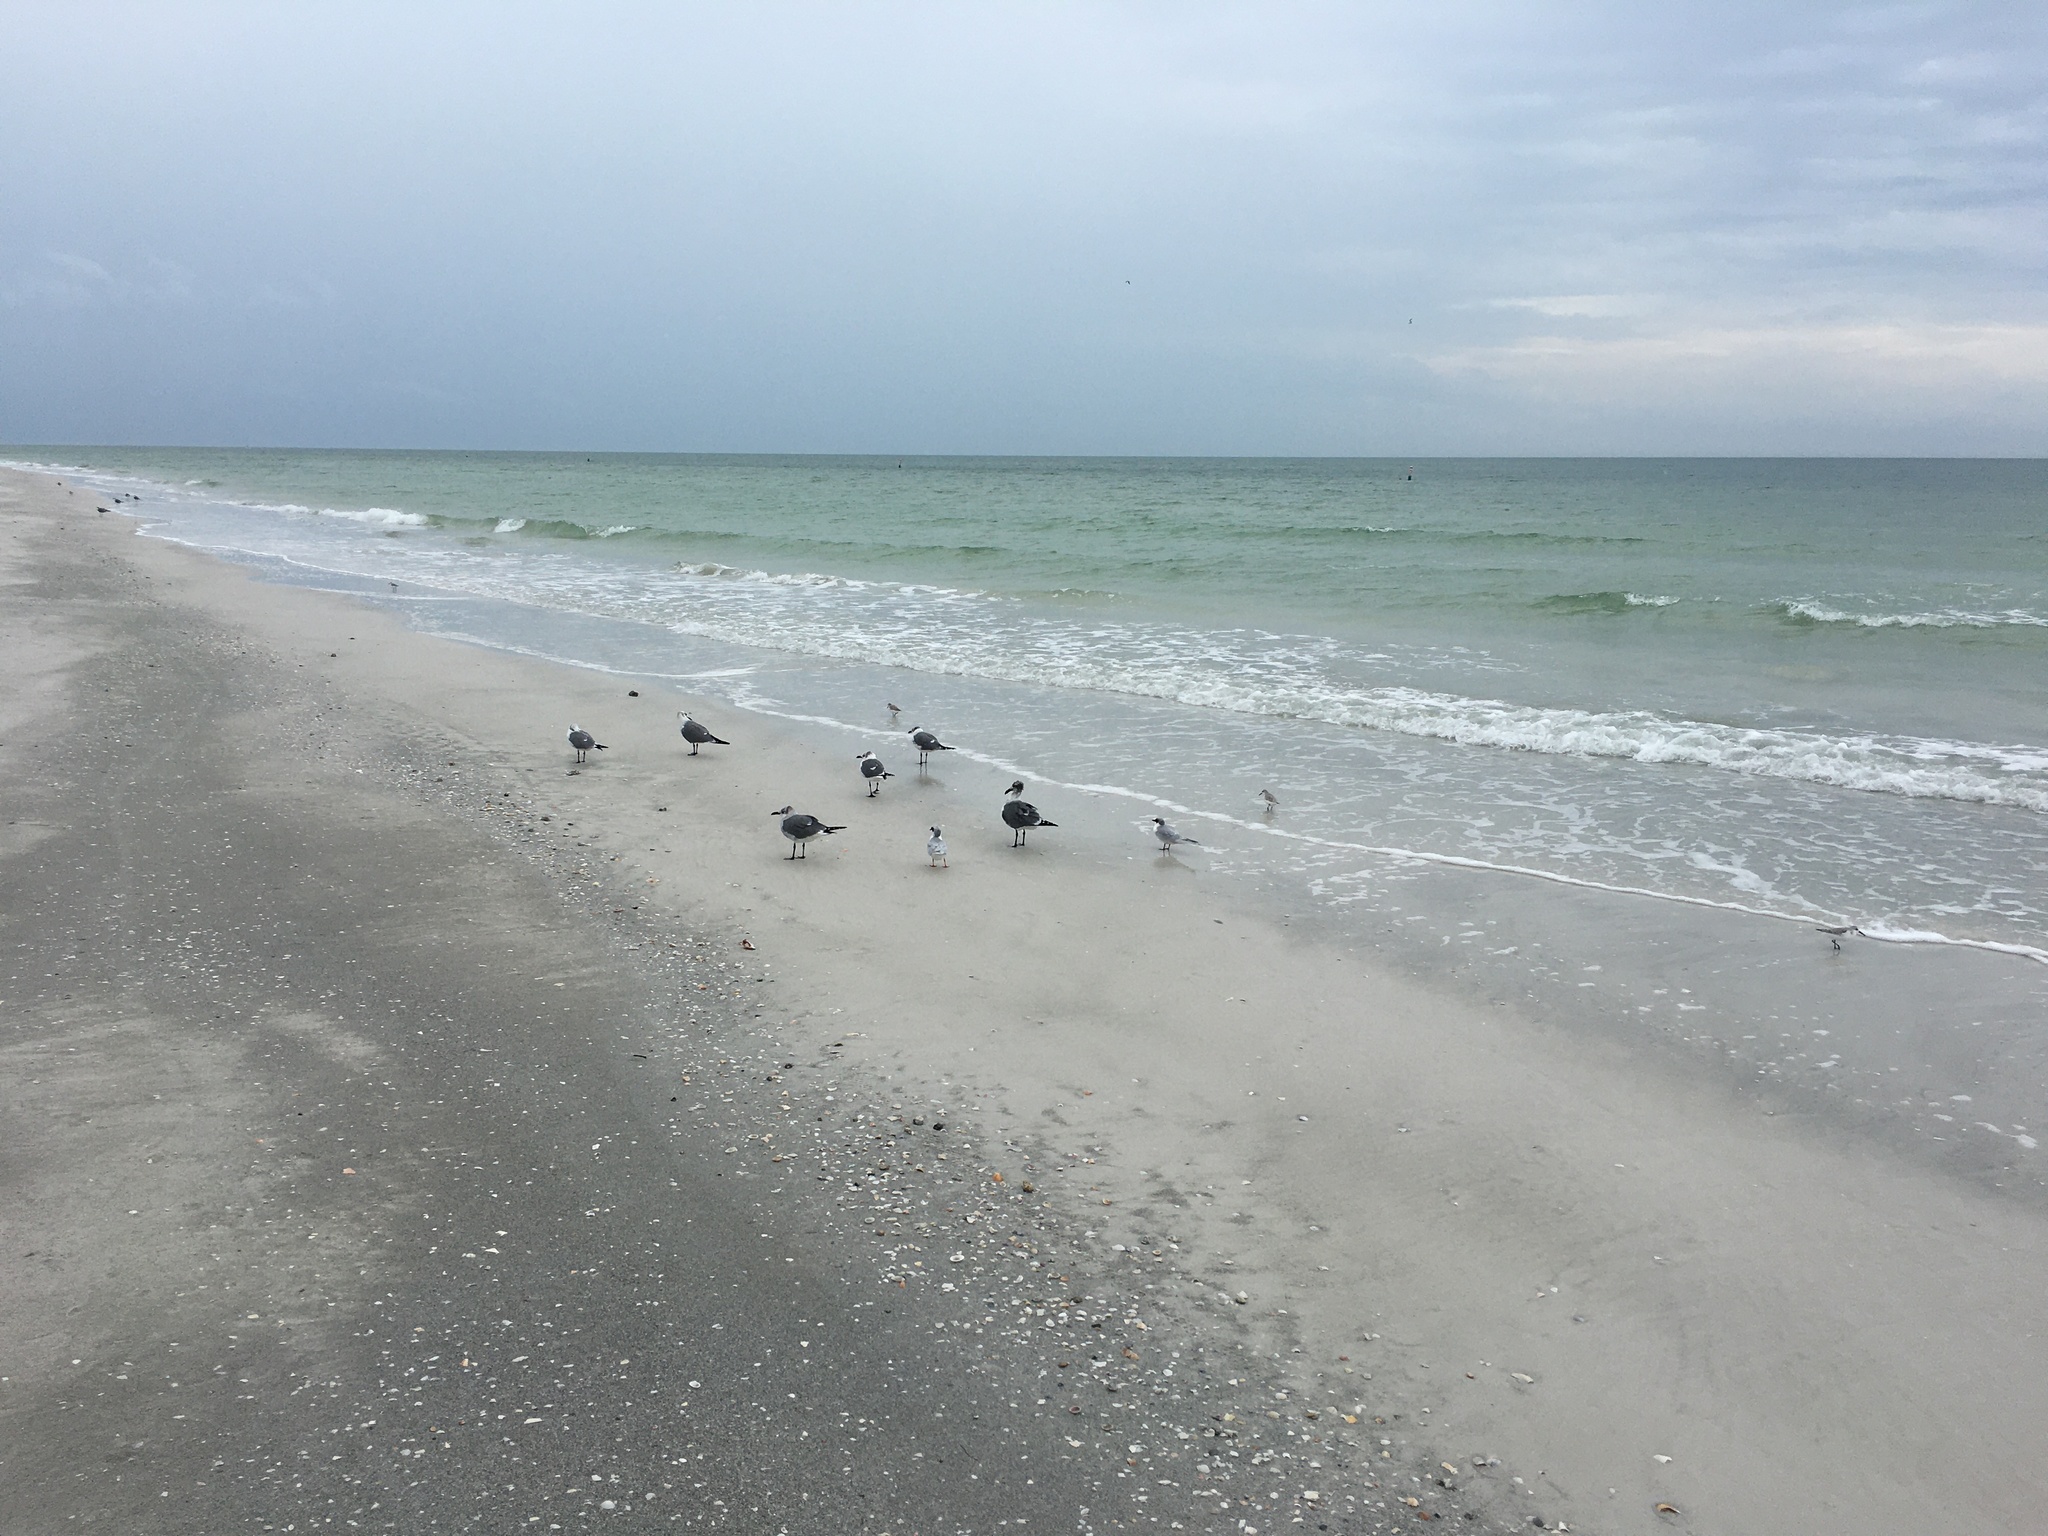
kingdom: Animalia
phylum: Chordata
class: Aves
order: Charadriiformes
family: Scolopacidae
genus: Calidris
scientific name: Calidris alba
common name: Sanderling
